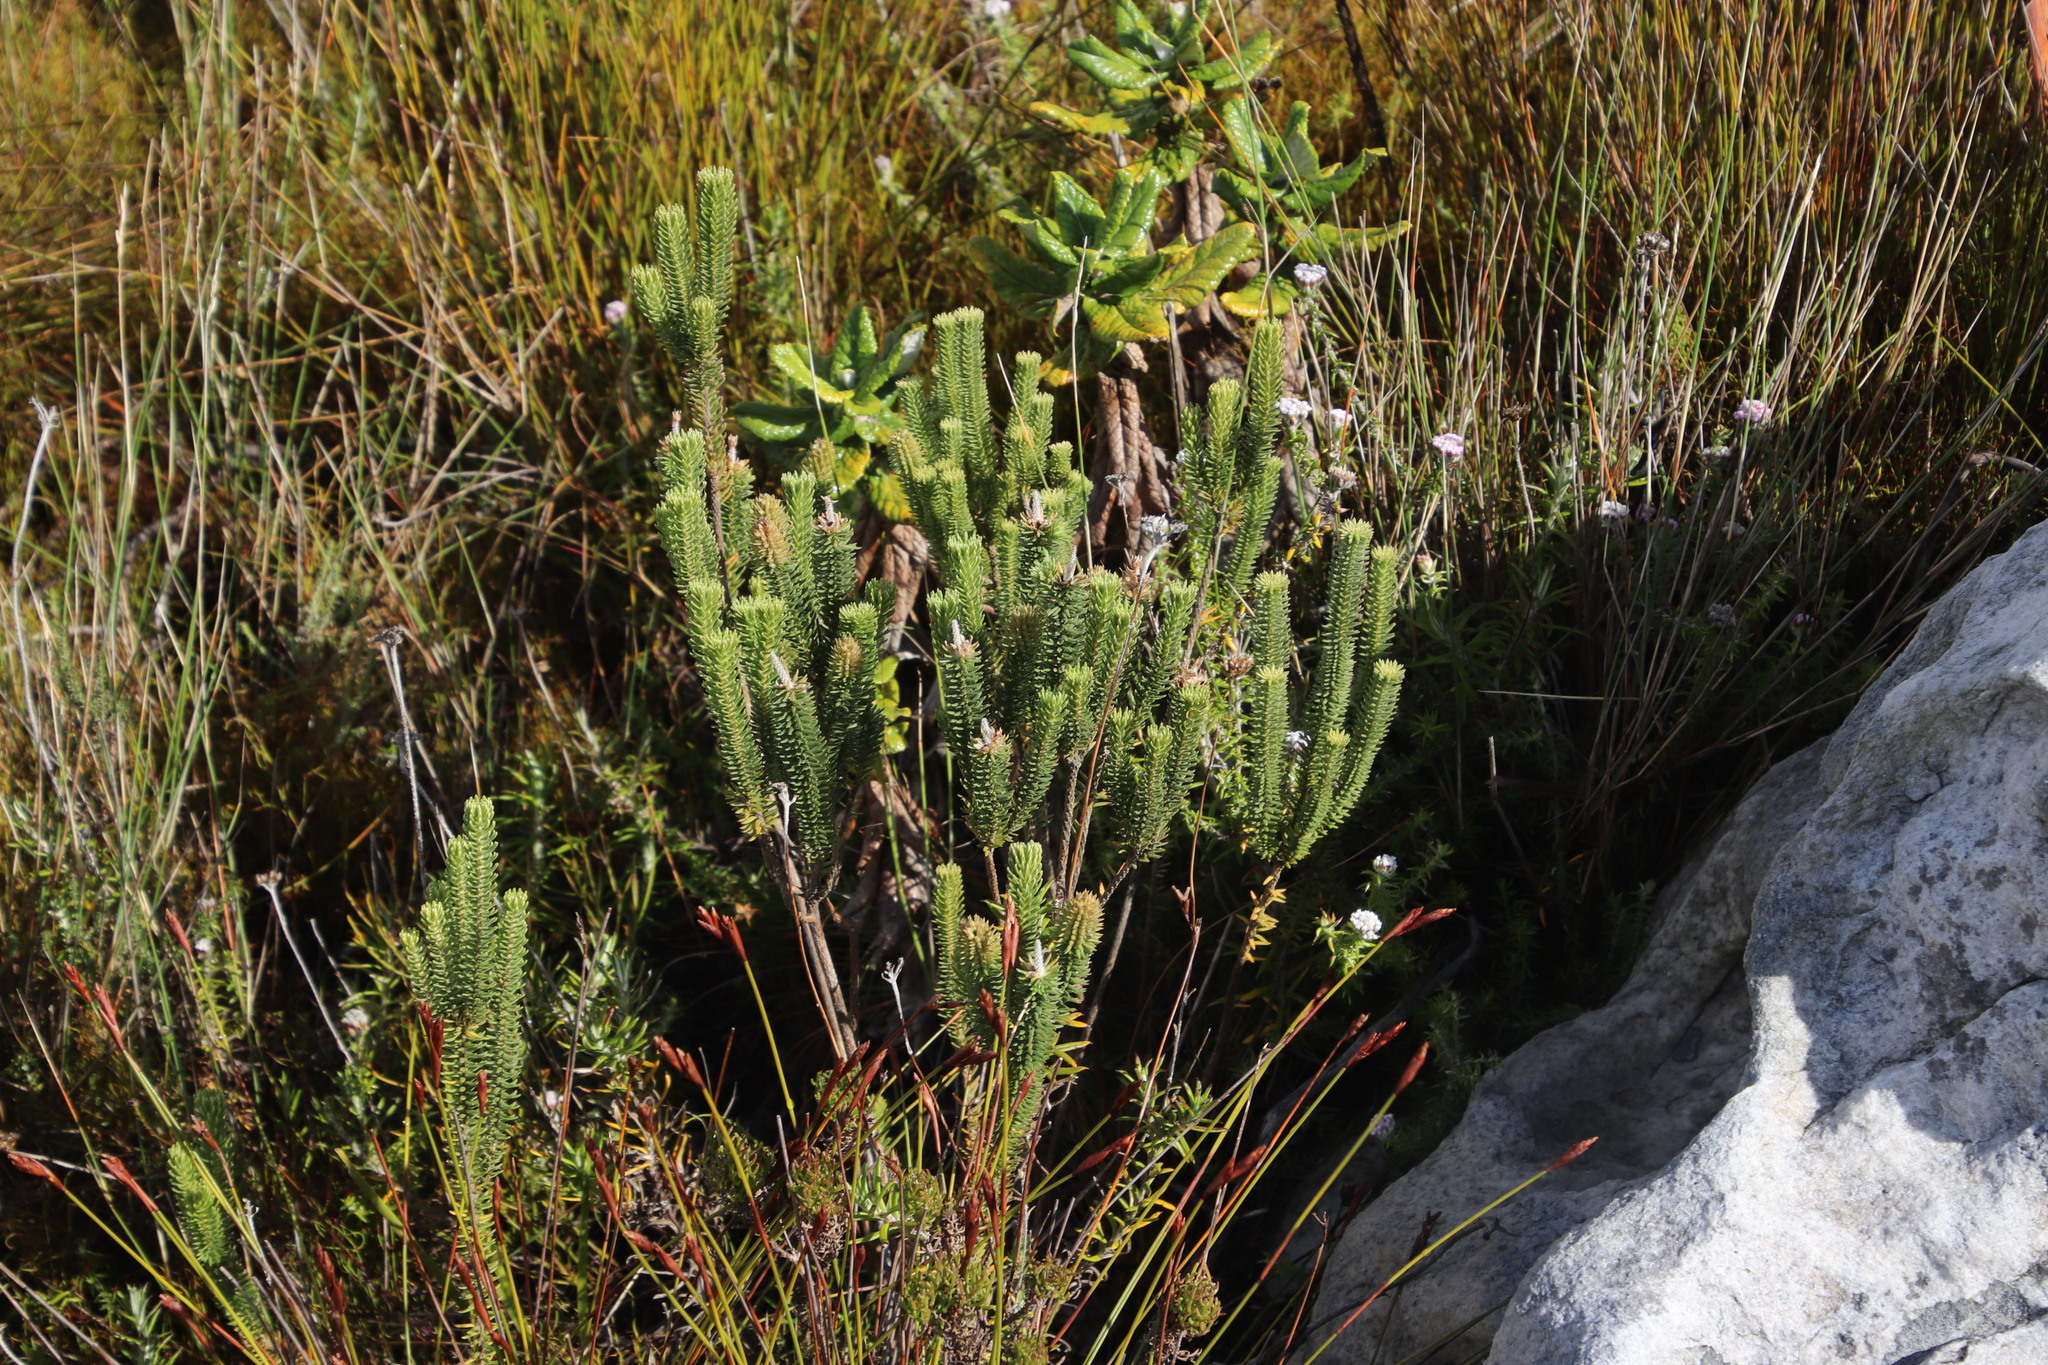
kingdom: Plantae
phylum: Tracheophyta
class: Magnoliopsida
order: Lamiales
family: Stilbaceae
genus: Stilbe
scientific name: Stilbe vestita
